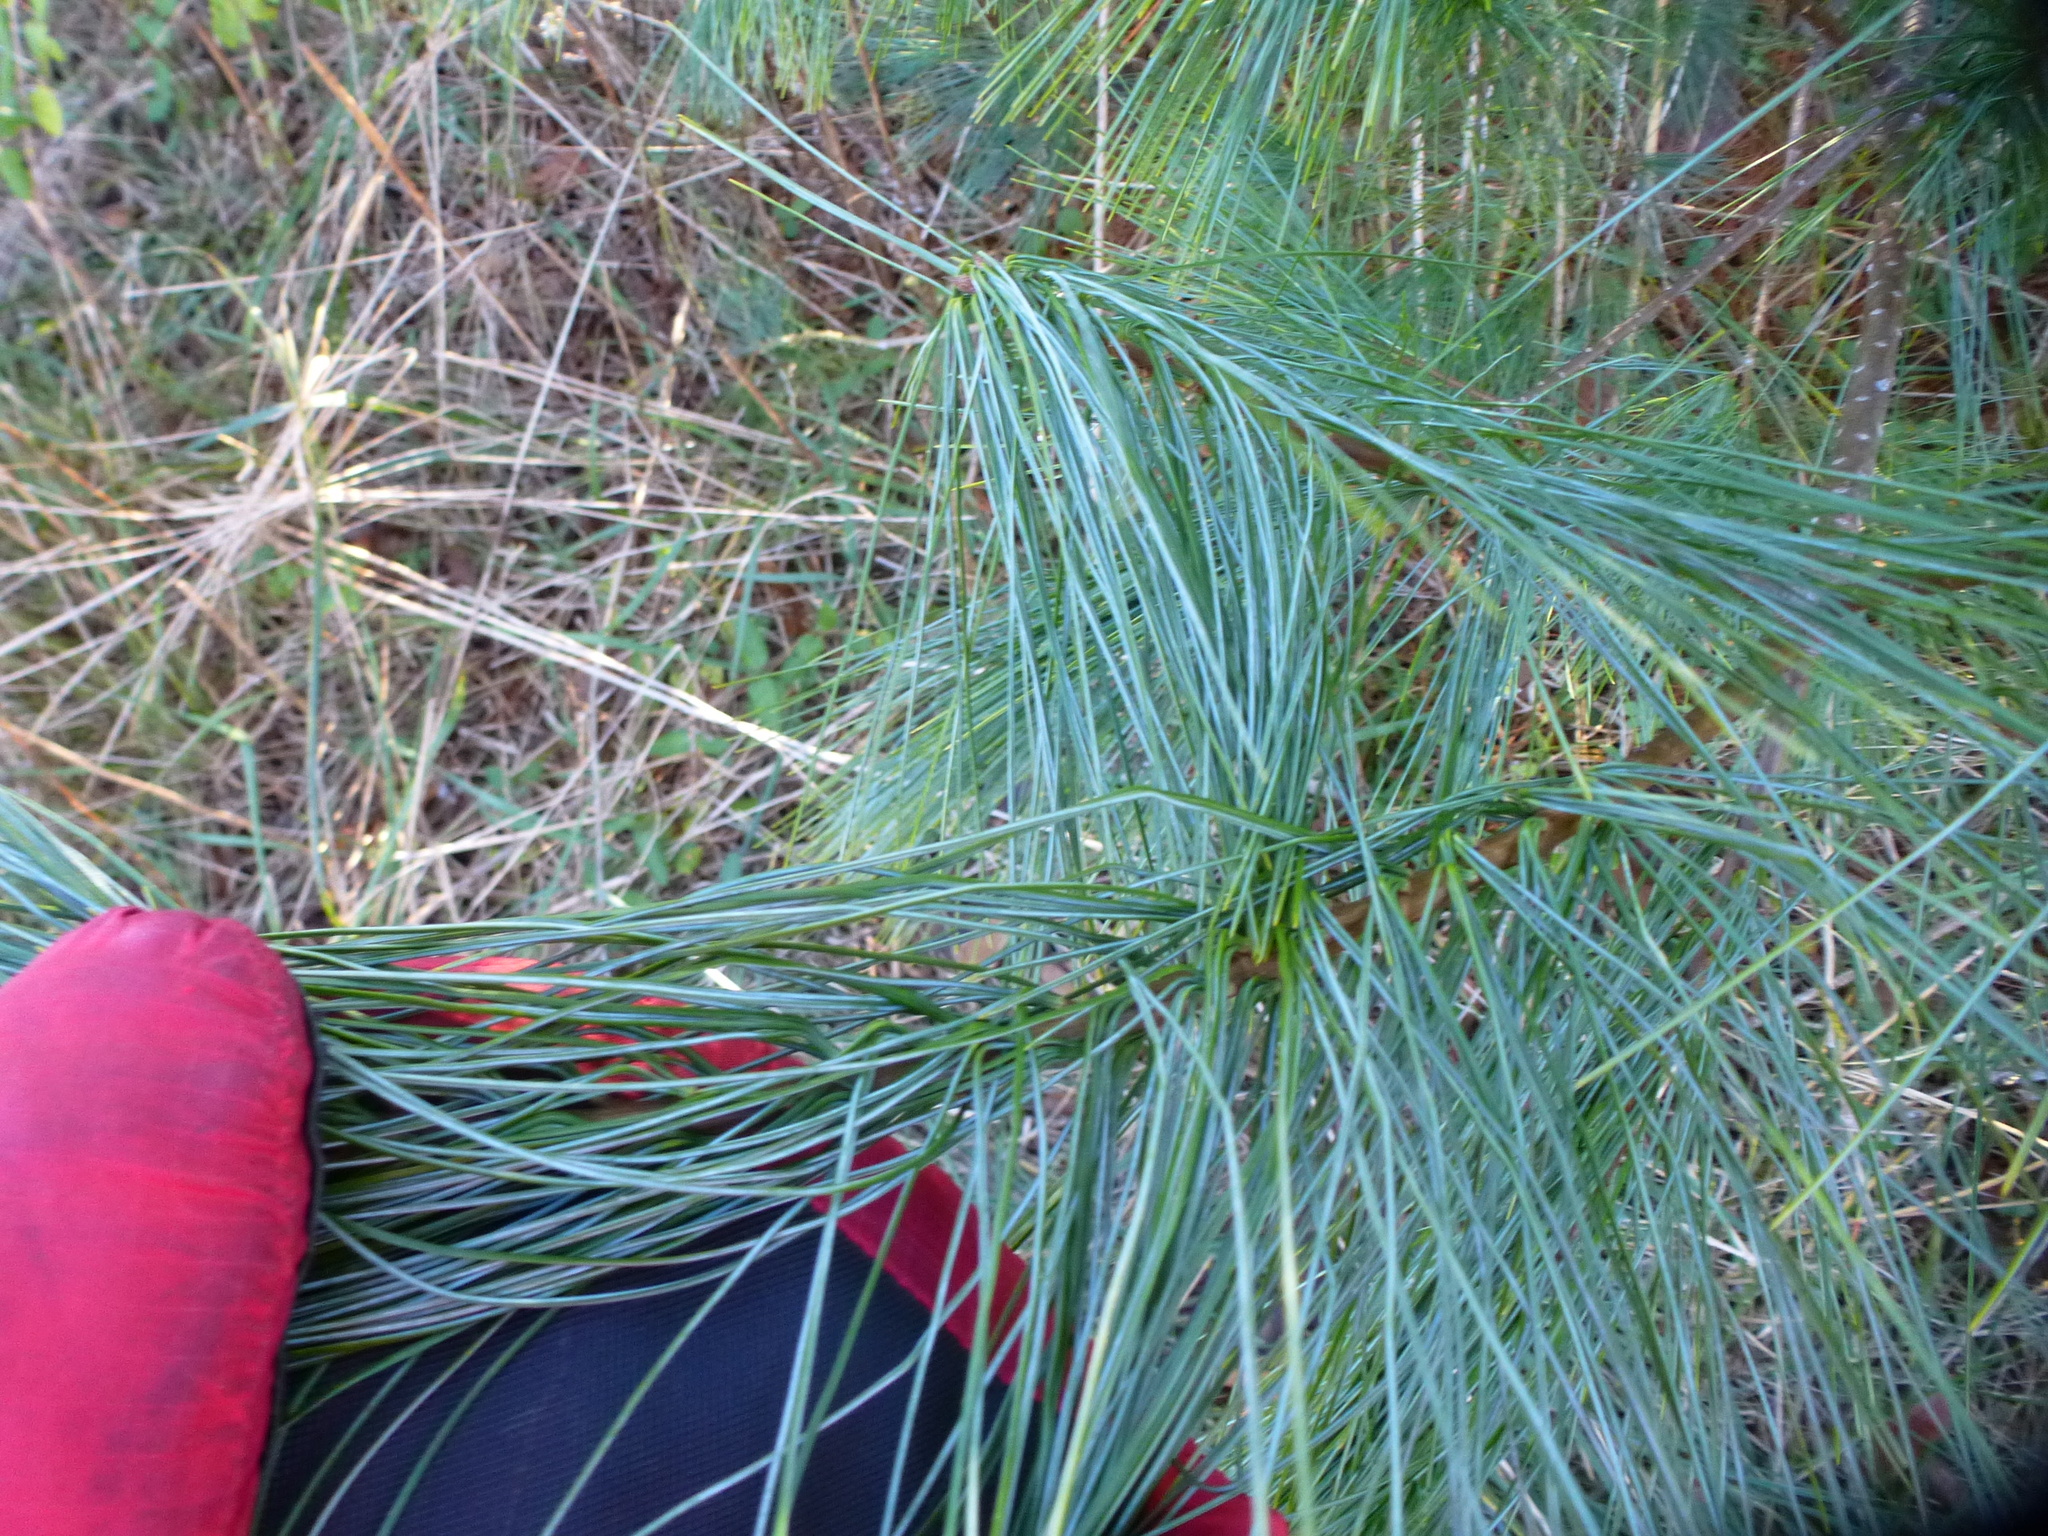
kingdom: Plantae
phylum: Tracheophyta
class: Pinopsida
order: Pinales
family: Pinaceae
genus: Pinus
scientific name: Pinus strobus
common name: Weymouth pine
